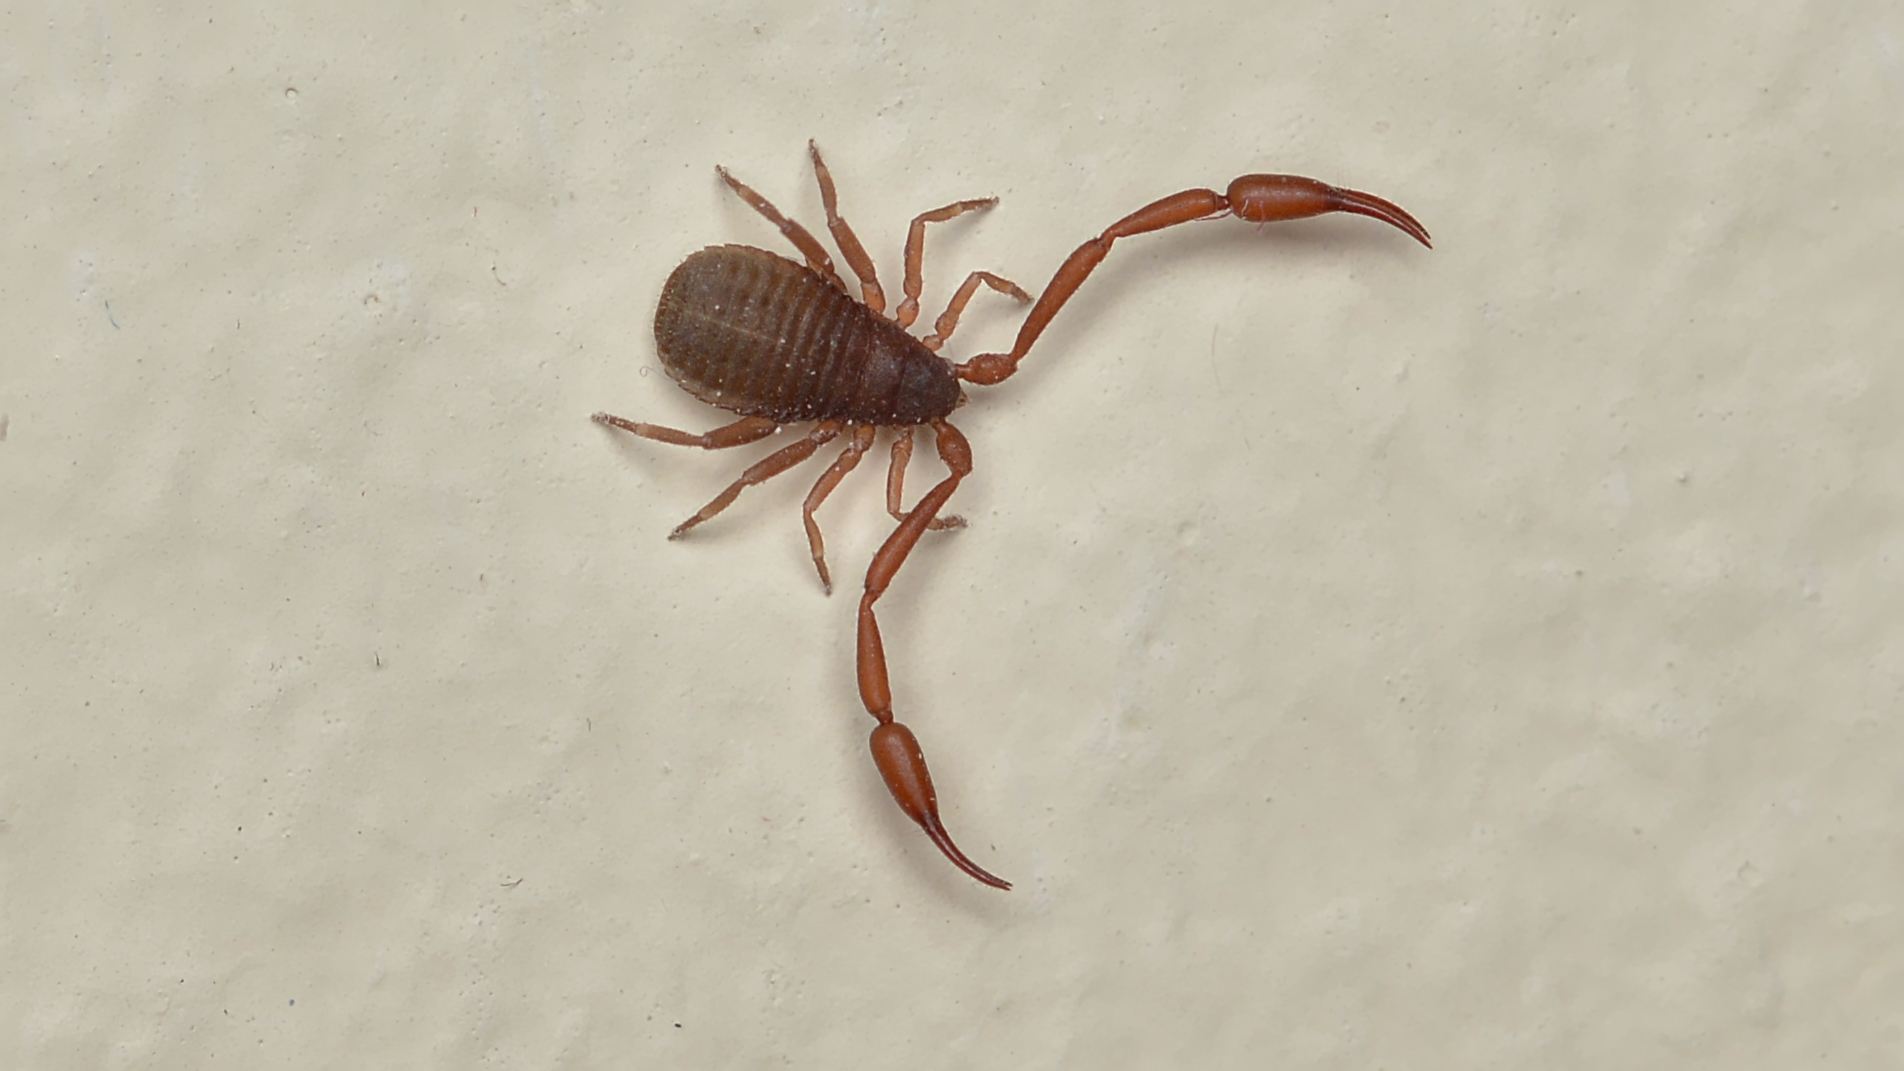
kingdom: Animalia
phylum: Arthropoda
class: Arachnida
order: Pseudoscorpiones
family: Cheliferidae
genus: Chelifer
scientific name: Chelifer cancroides
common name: House false-scorpion
